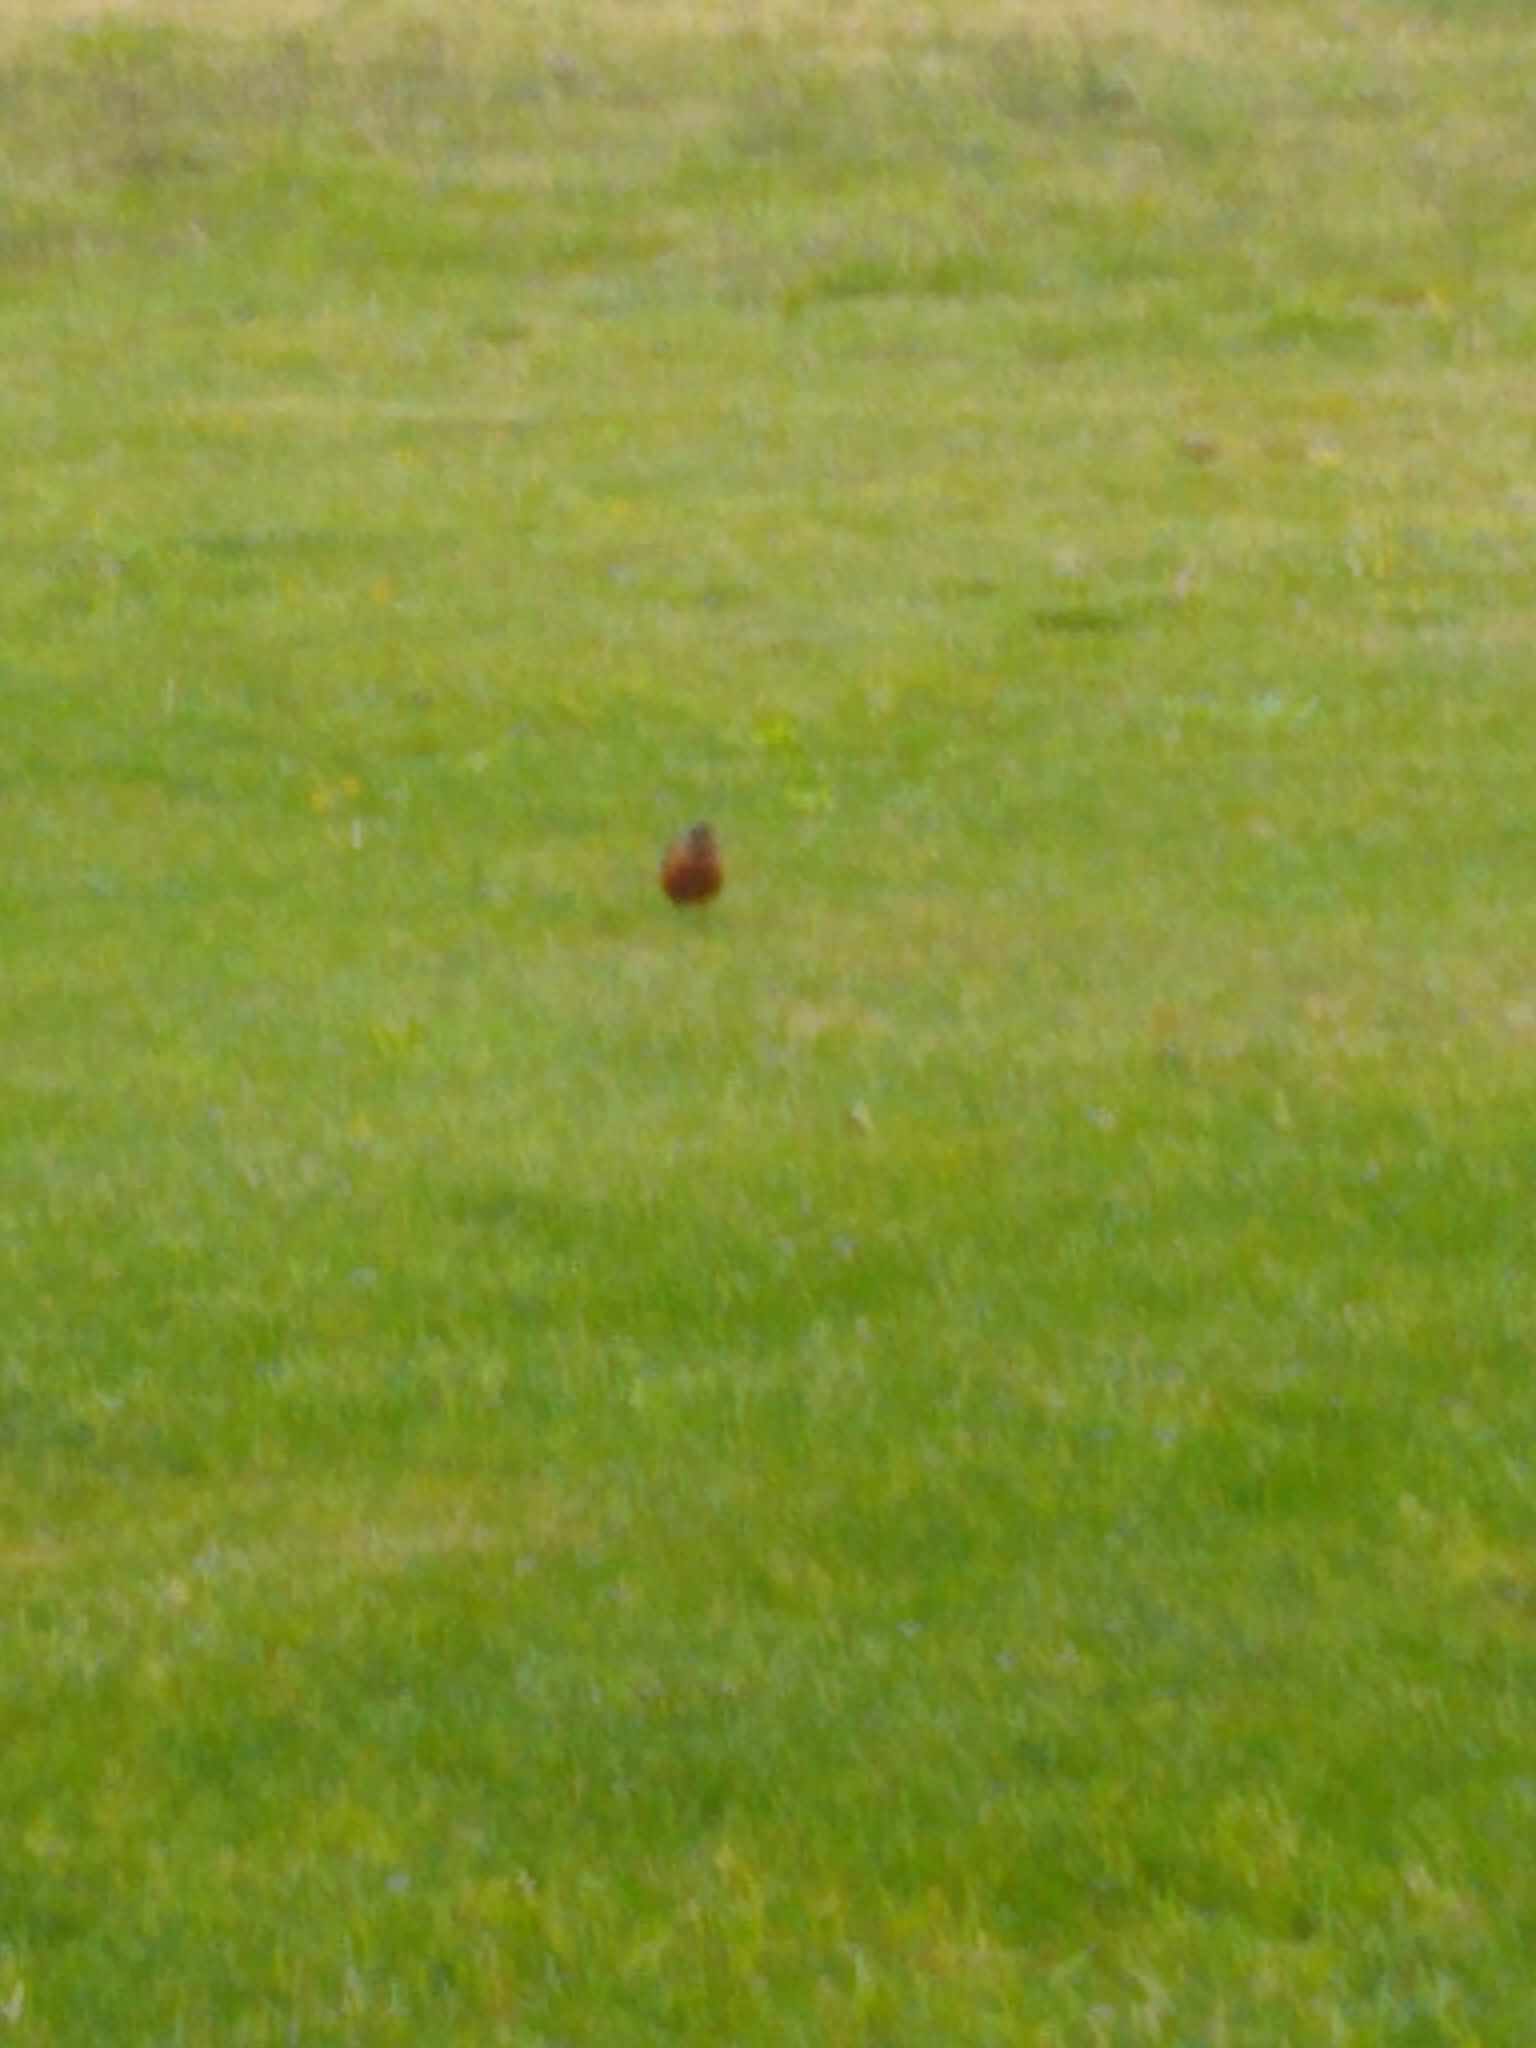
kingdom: Animalia
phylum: Chordata
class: Aves
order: Passeriformes
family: Turdidae
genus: Turdus
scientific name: Turdus migratorius
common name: American robin
